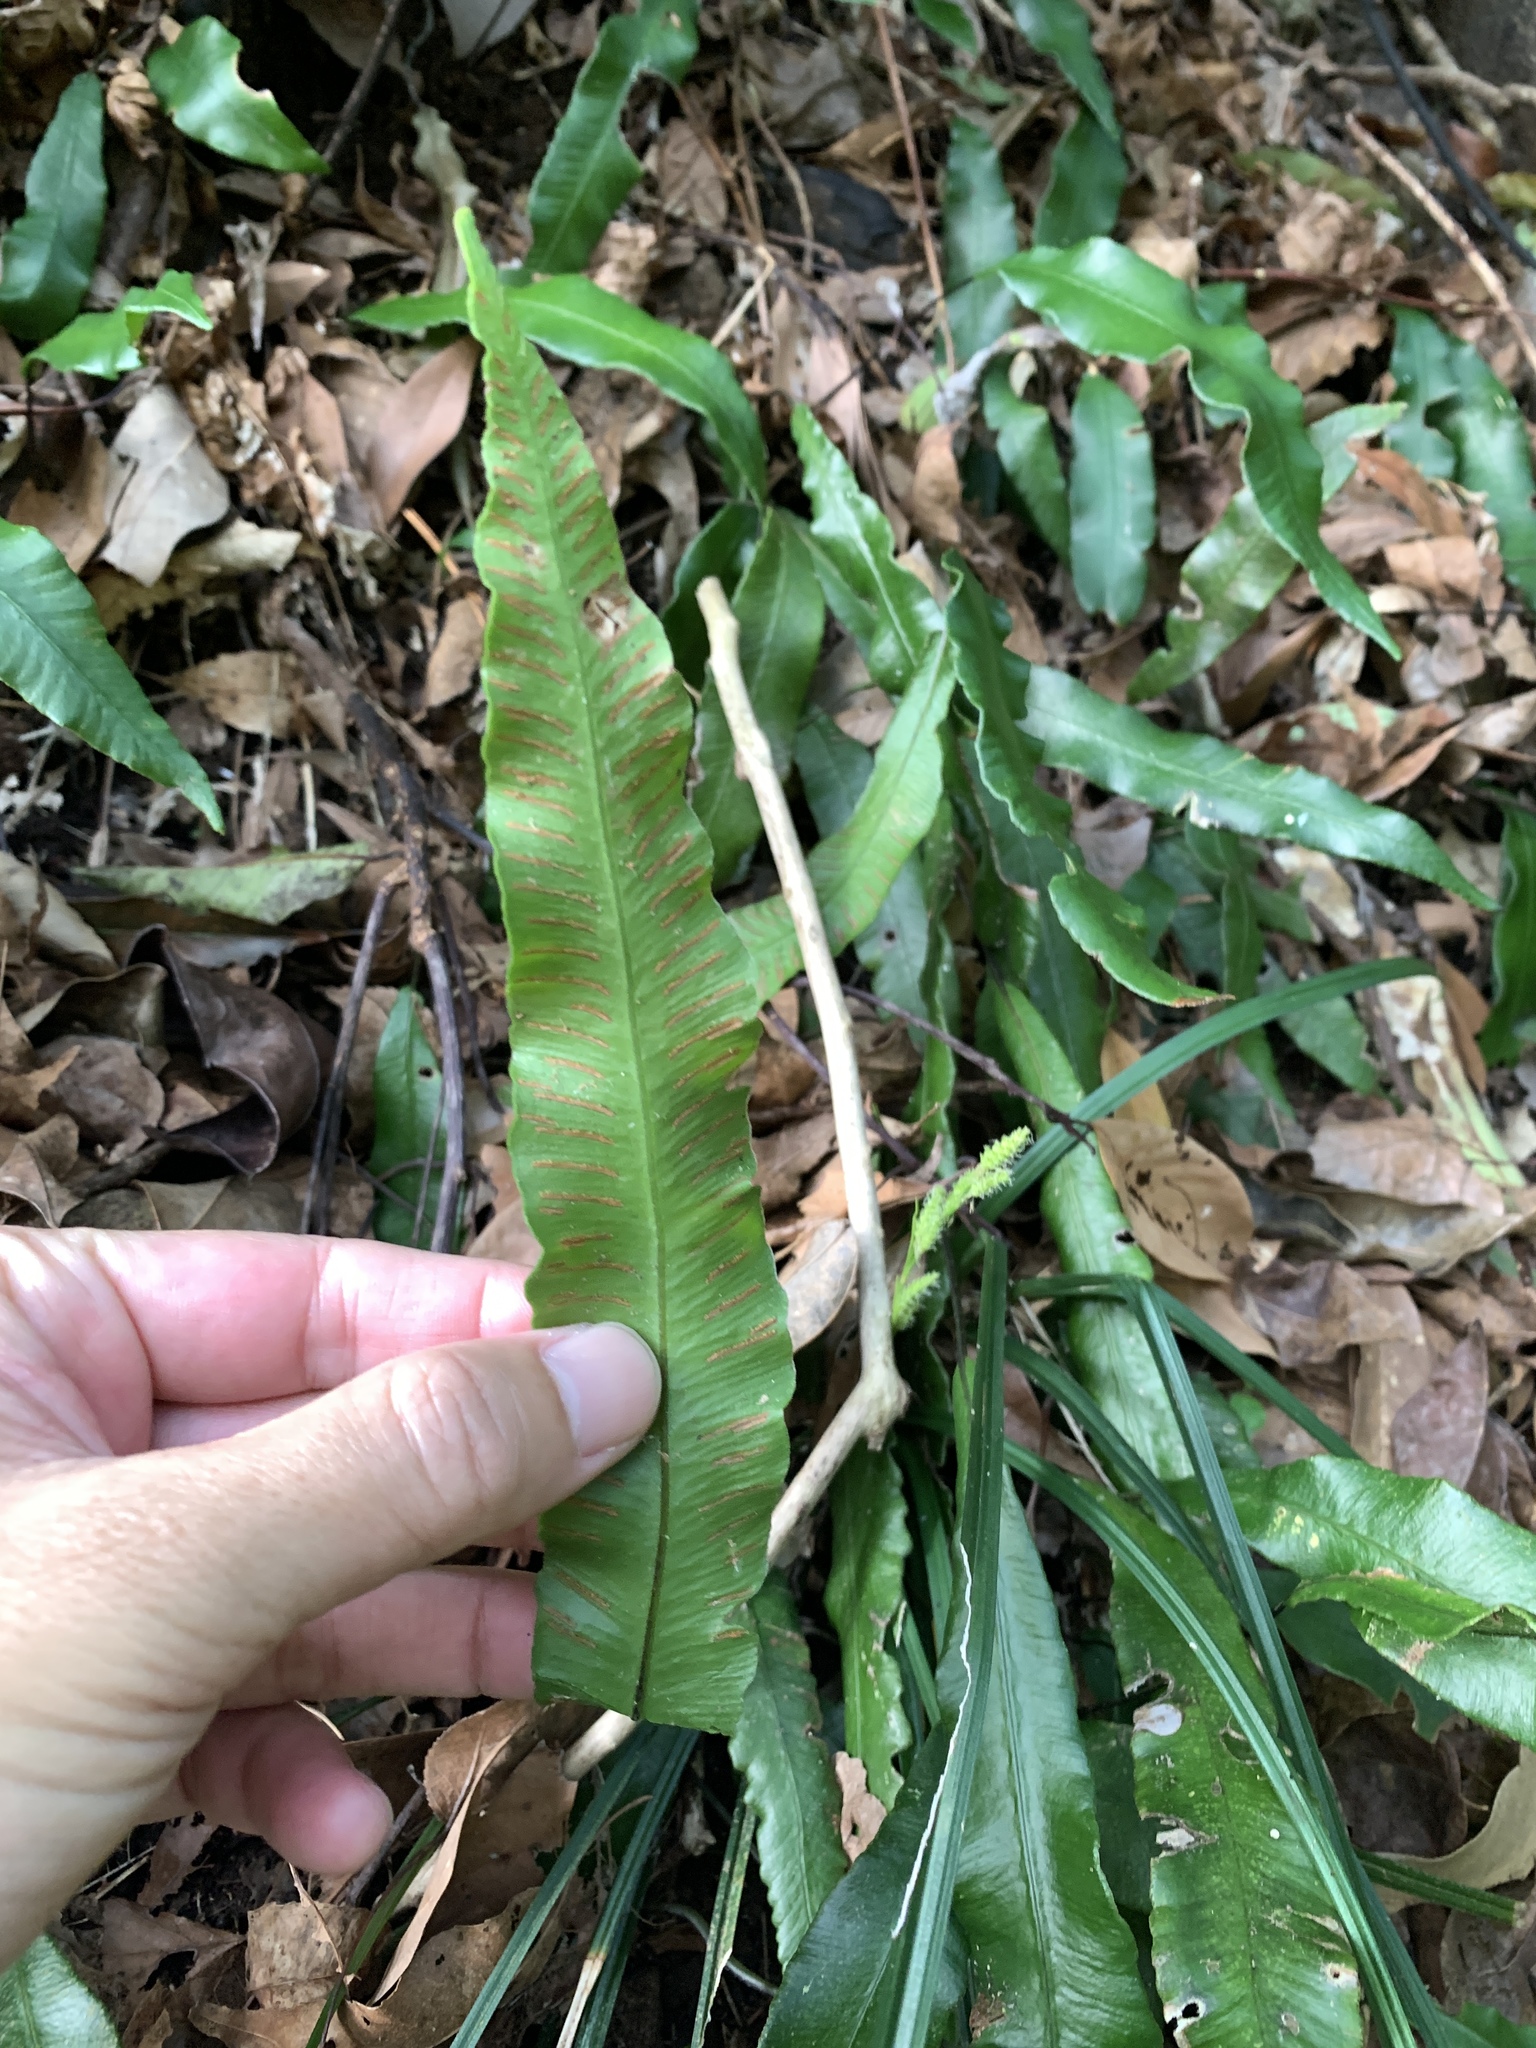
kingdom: Plantae
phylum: Tracheophyta
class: Polypodiopsida
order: Polypodiales
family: Athyriaceae
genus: Deparia
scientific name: Deparia lancea
